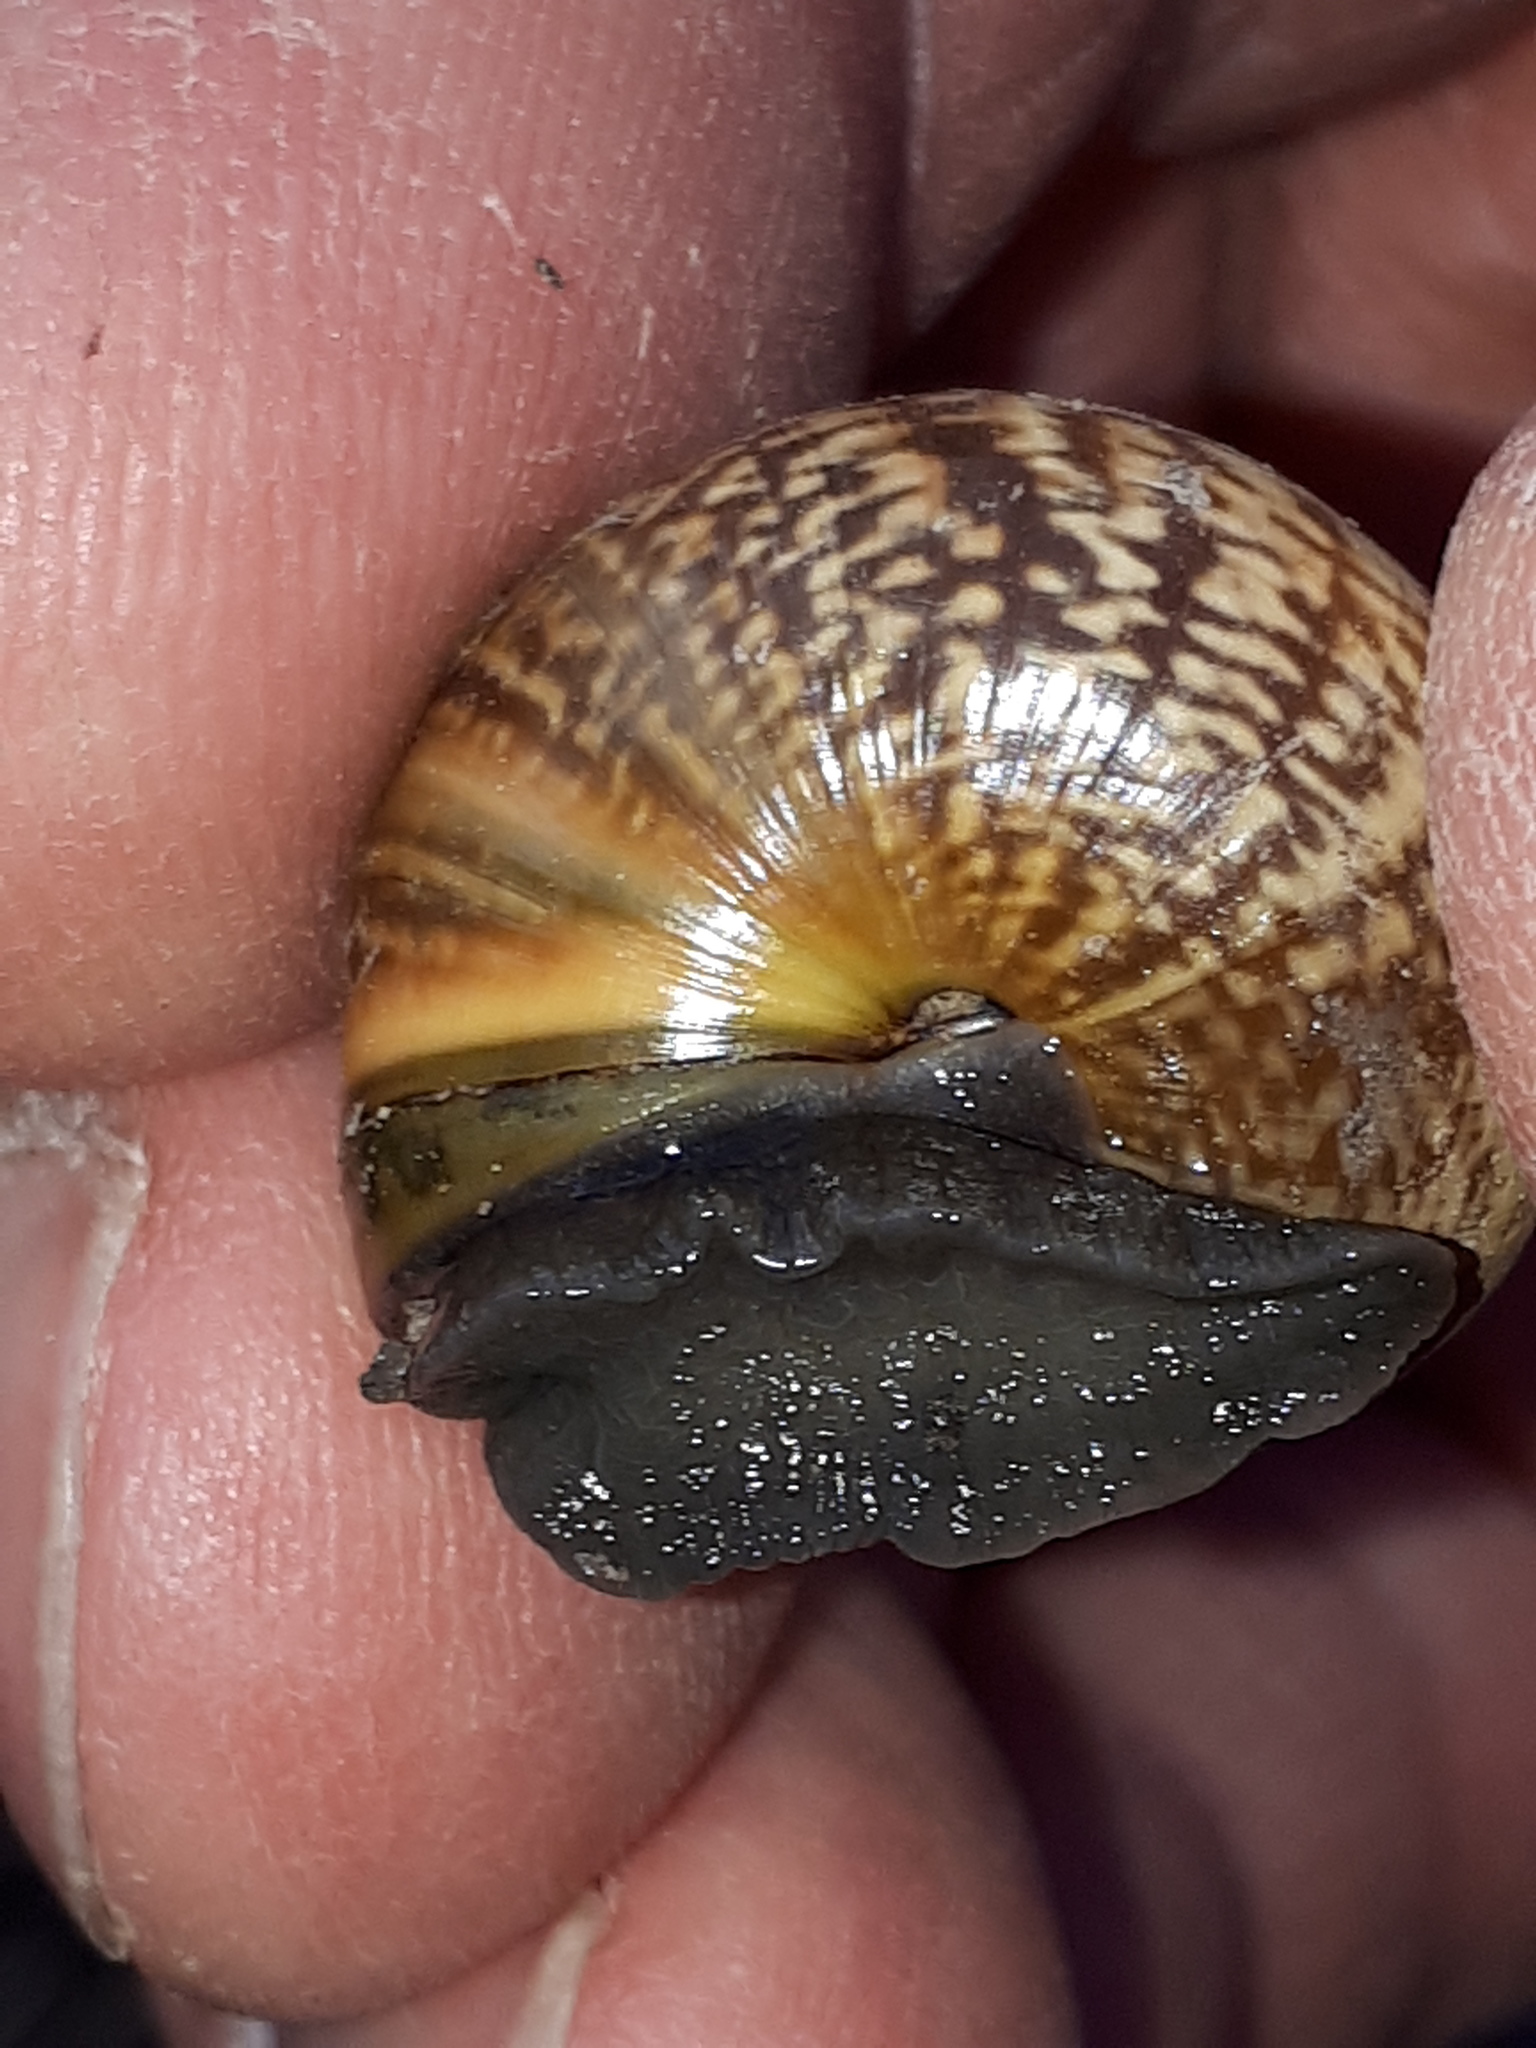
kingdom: Animalia
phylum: Mollusca
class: Gastropoda
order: Stylommatophora
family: Helicidae
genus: Arianta
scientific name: Arianta arbustorum
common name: Copse snail
